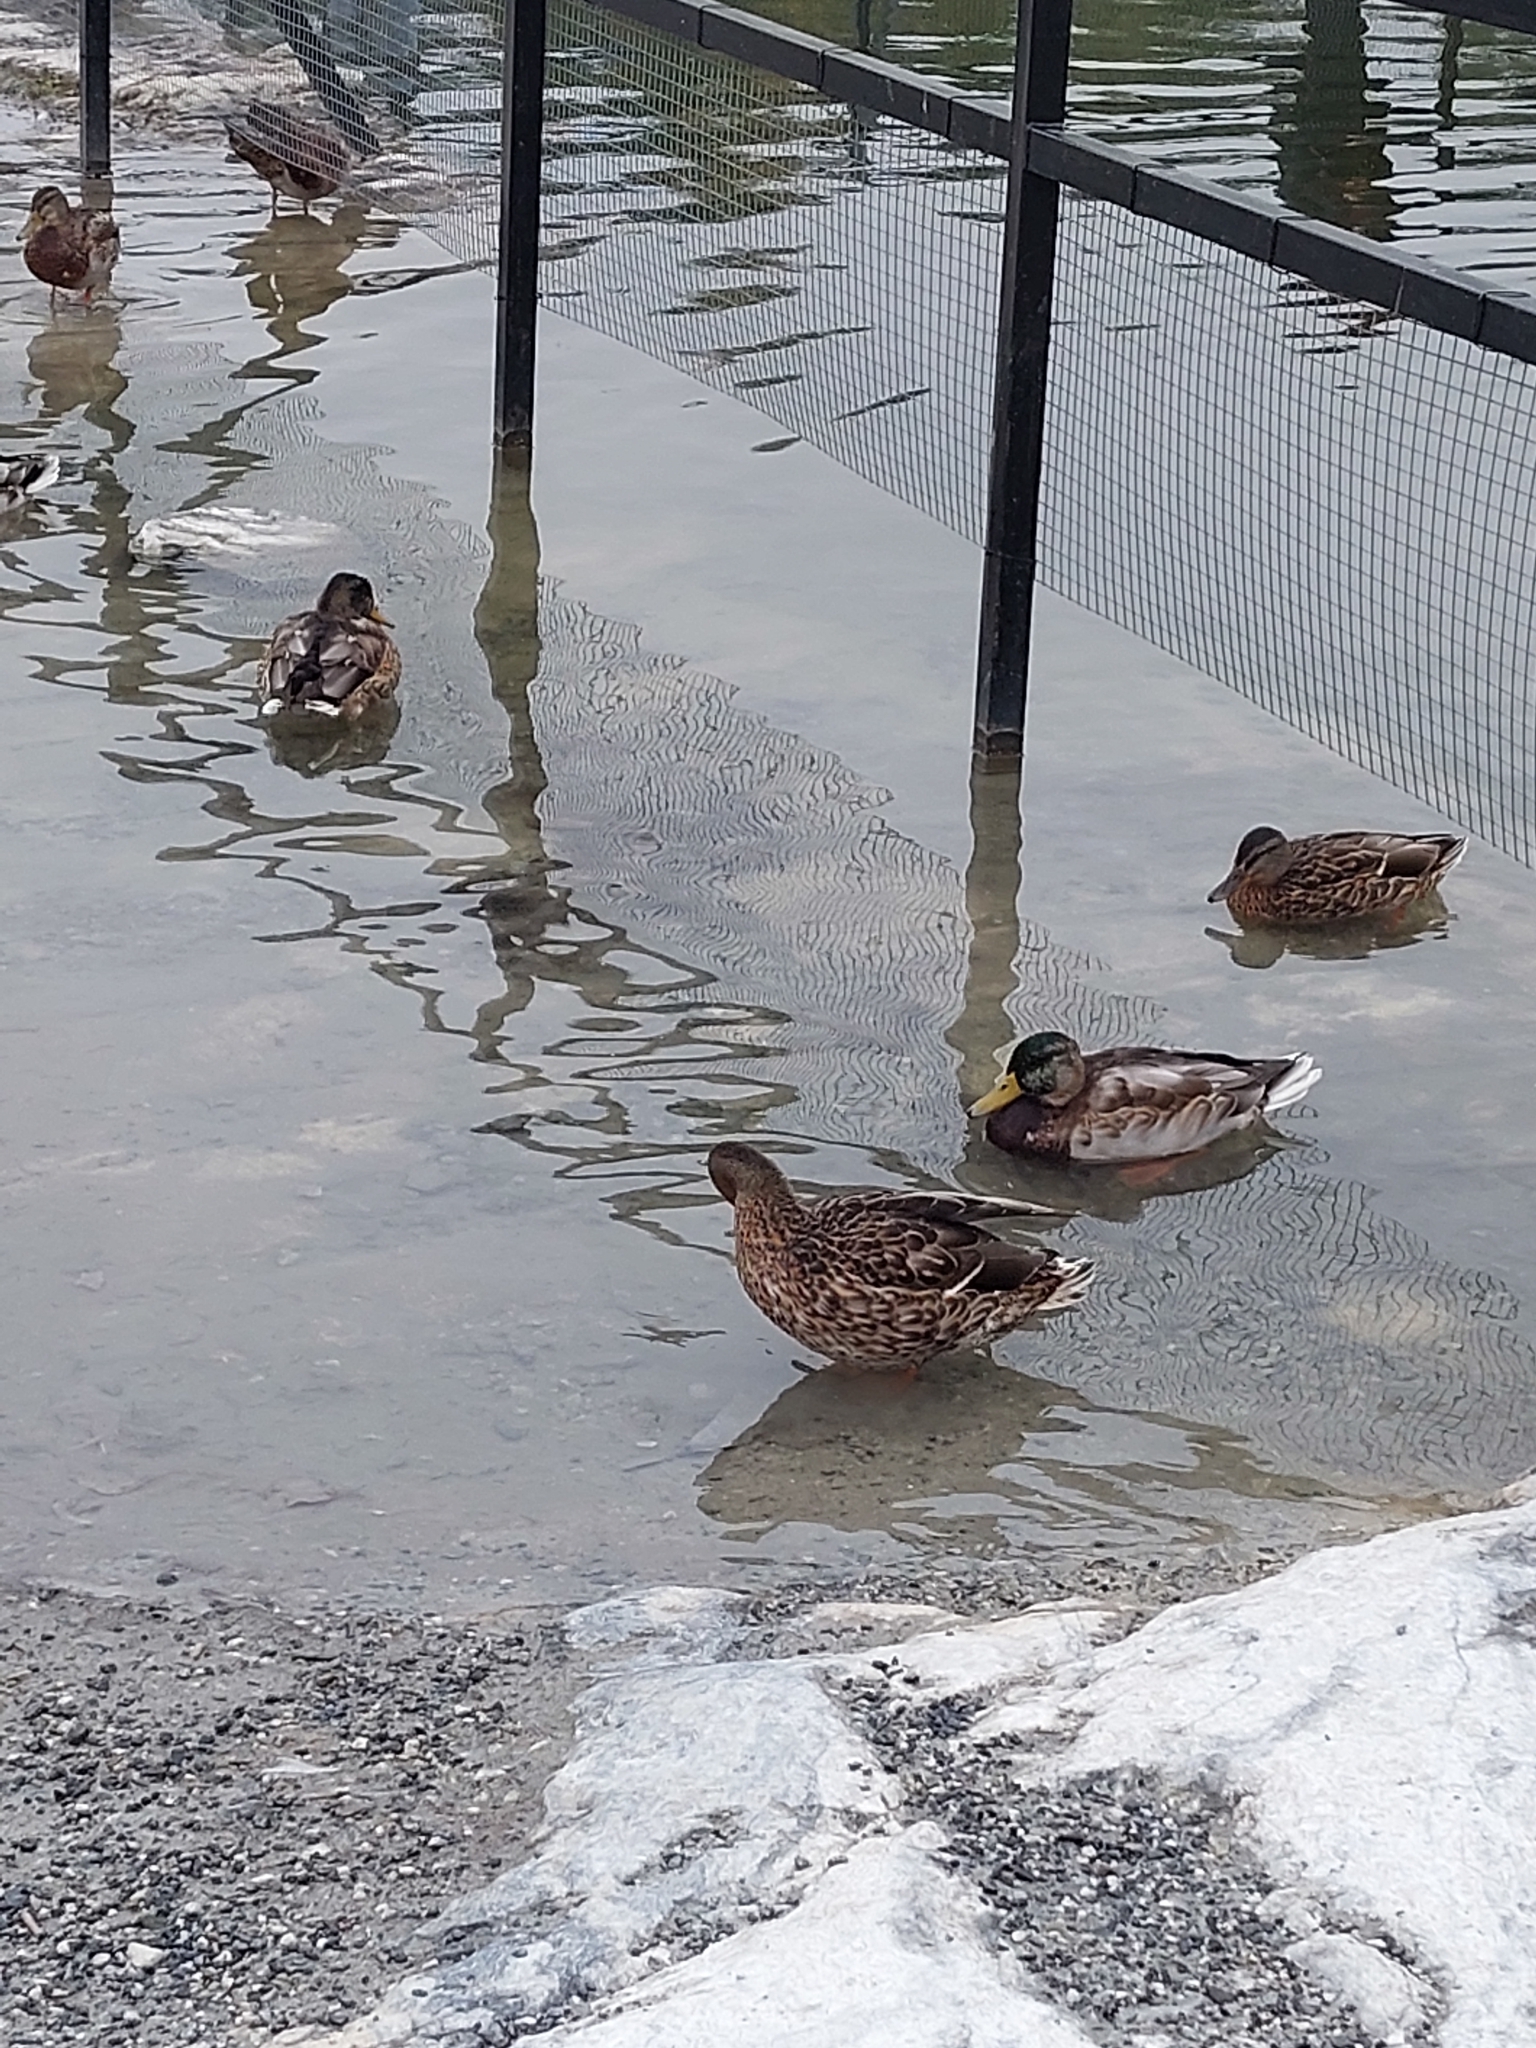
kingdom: Animalia
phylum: Chordata
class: Aves
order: Anseriformes
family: Anatidae
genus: Anas
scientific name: Anas platyrhynchos
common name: Mallard
